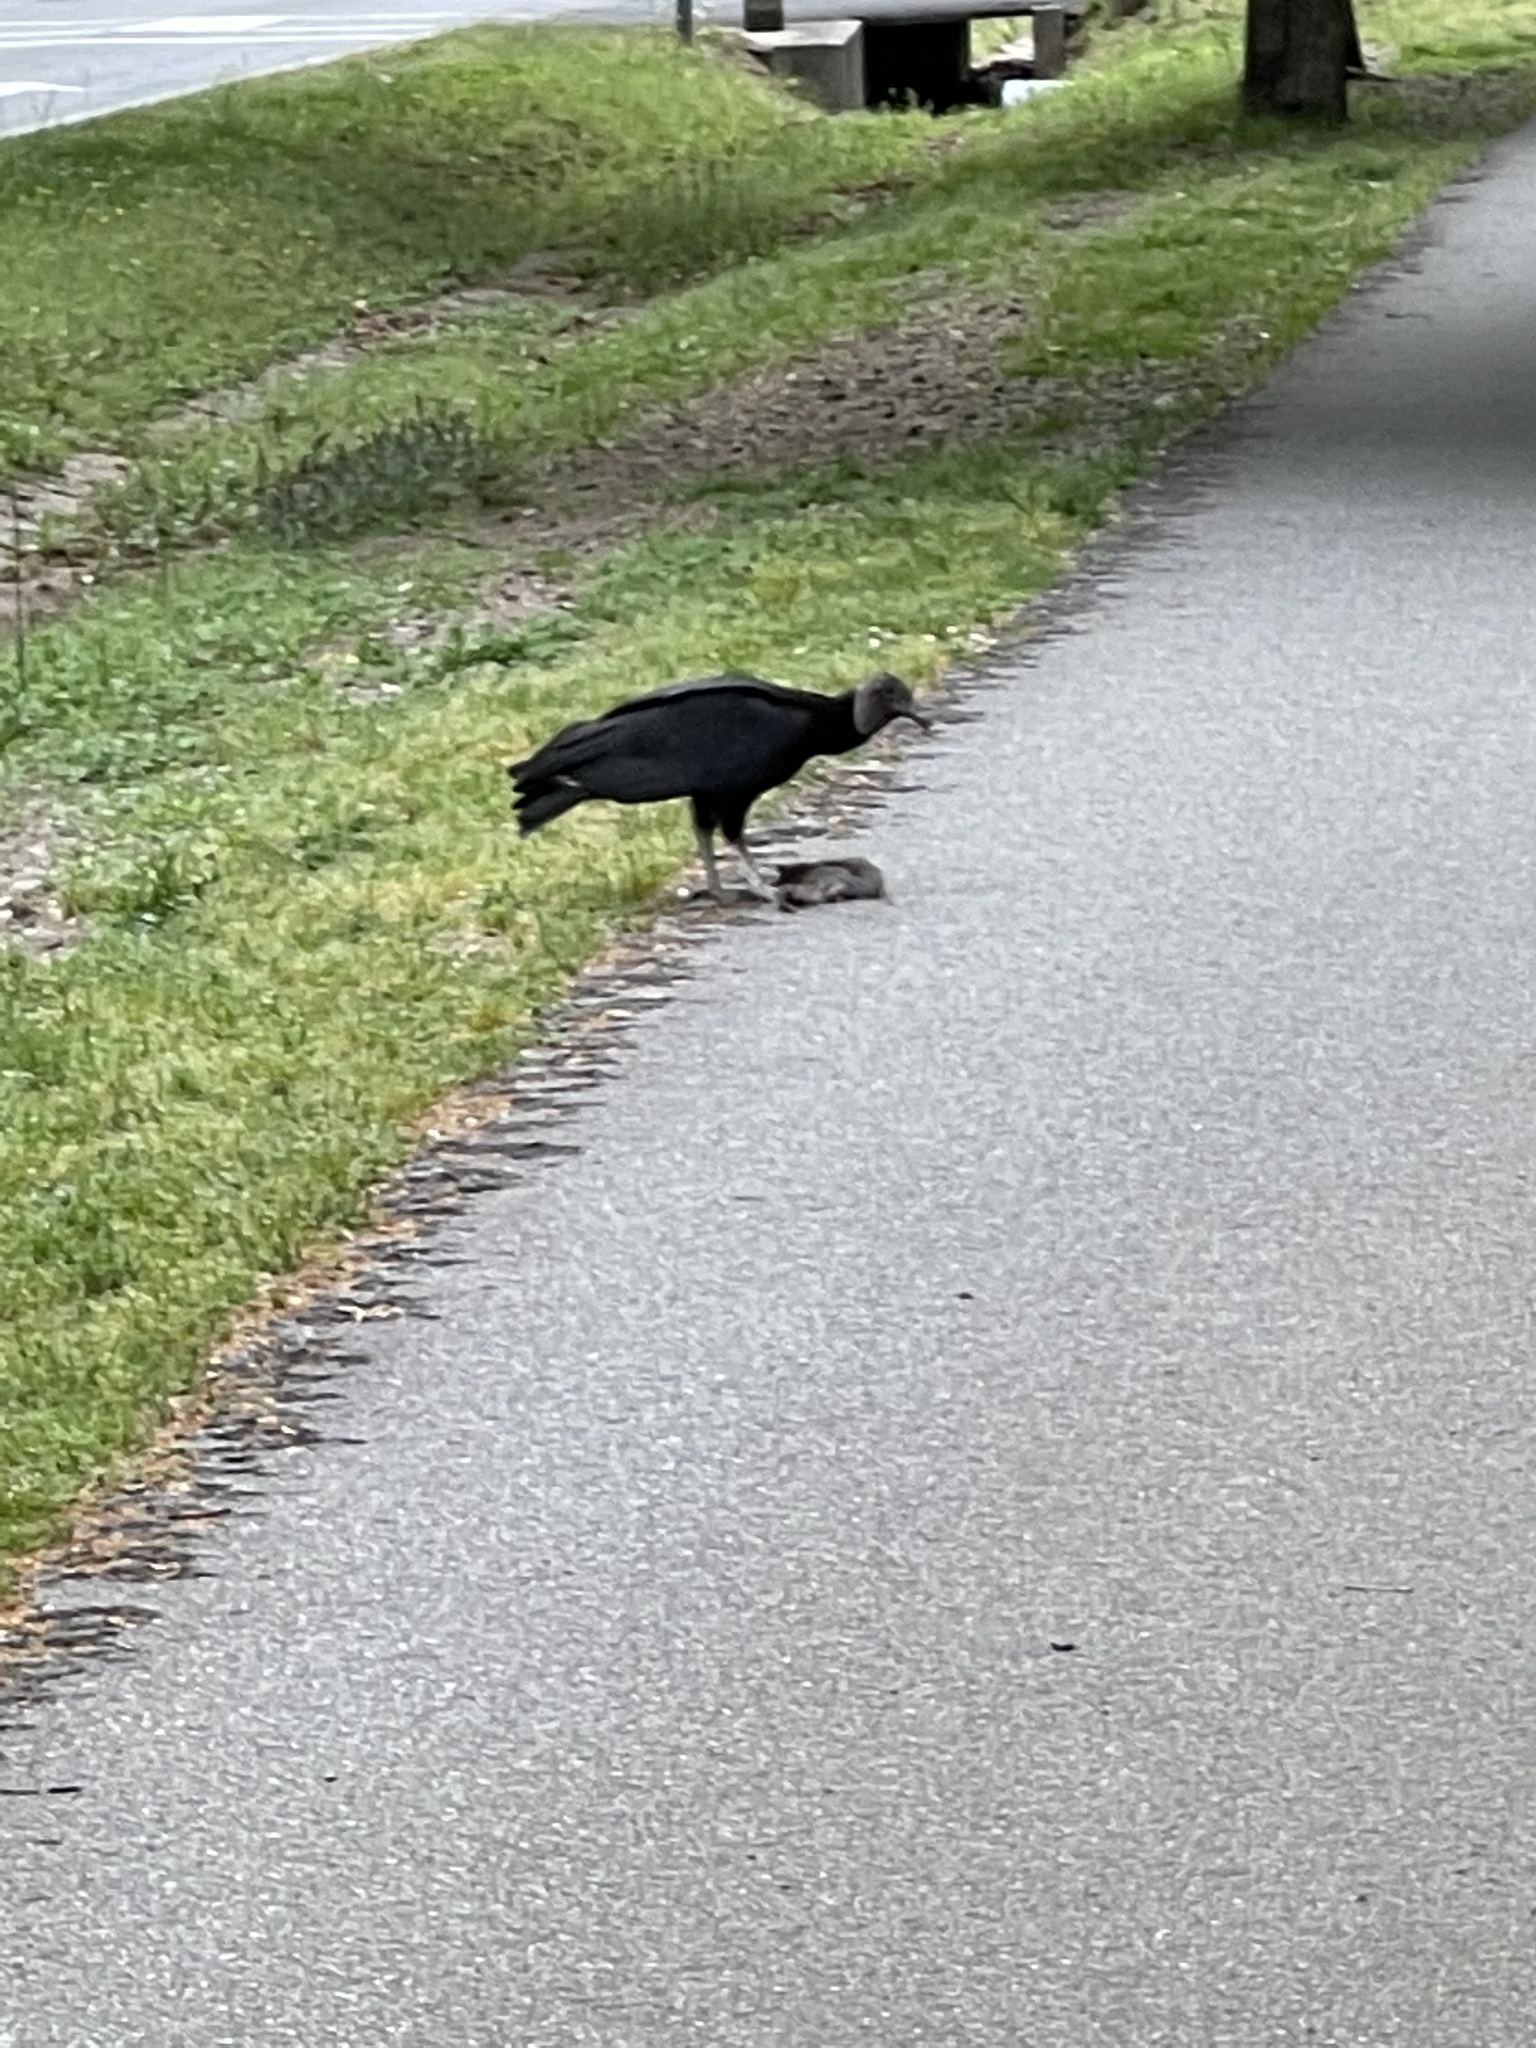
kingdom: Animalia
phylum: Chordata
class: Aves
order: Accipitriformes
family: Cathartidae
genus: Coragyps
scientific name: Coragyps atratus
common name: Black vulture
